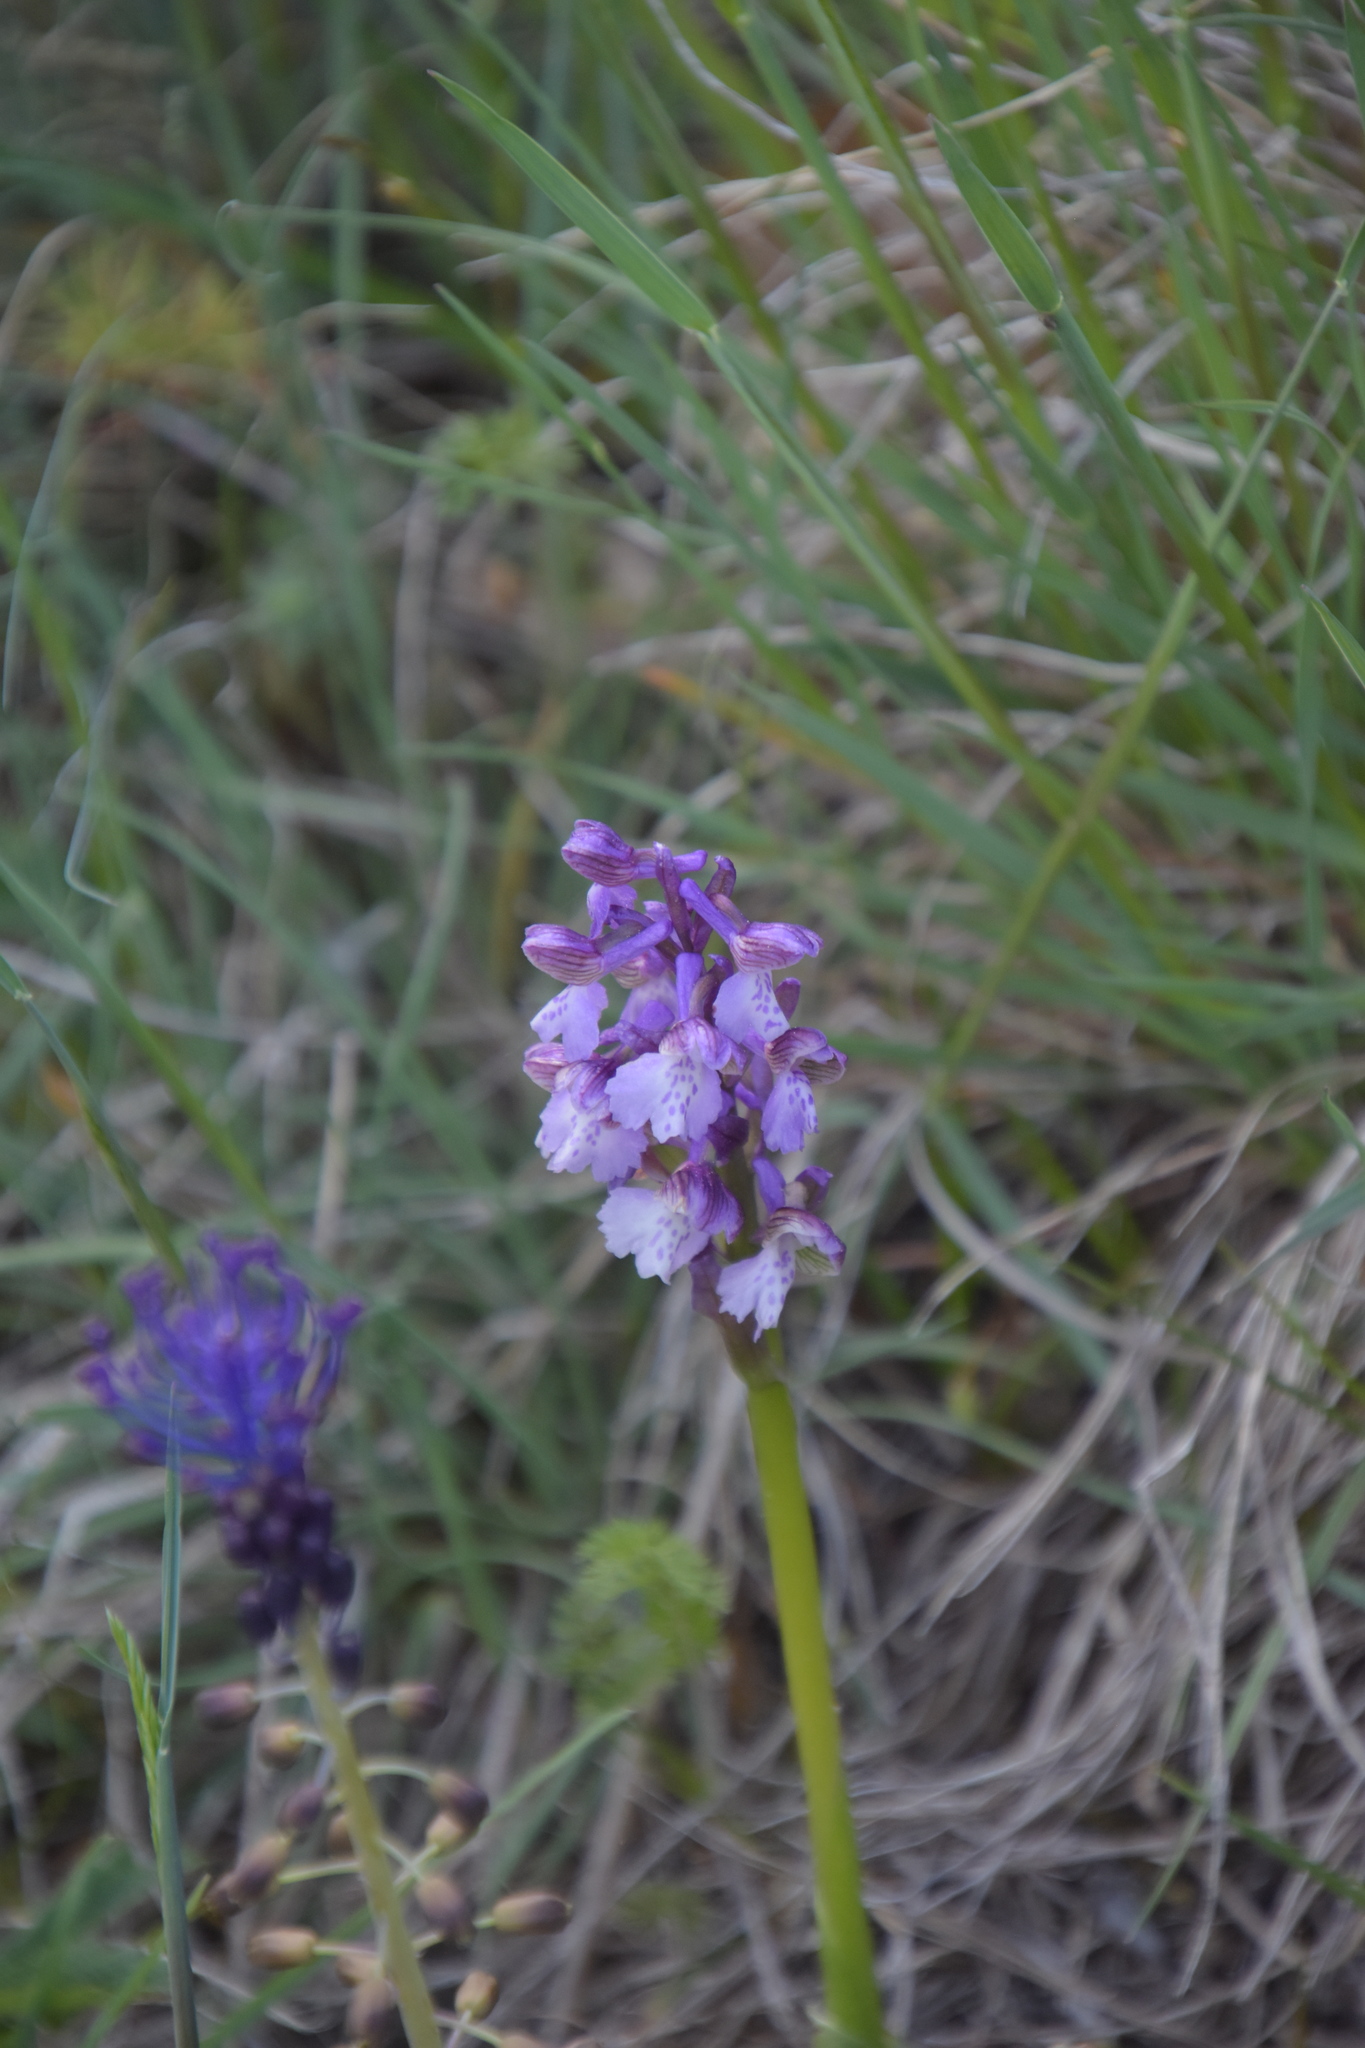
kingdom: Plantae
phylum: Tracheophyta
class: Liliopsida
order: Asparagales
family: Orchidaceae
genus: Anacamptis
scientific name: Anacamptis morio
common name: Green-winged orchid
